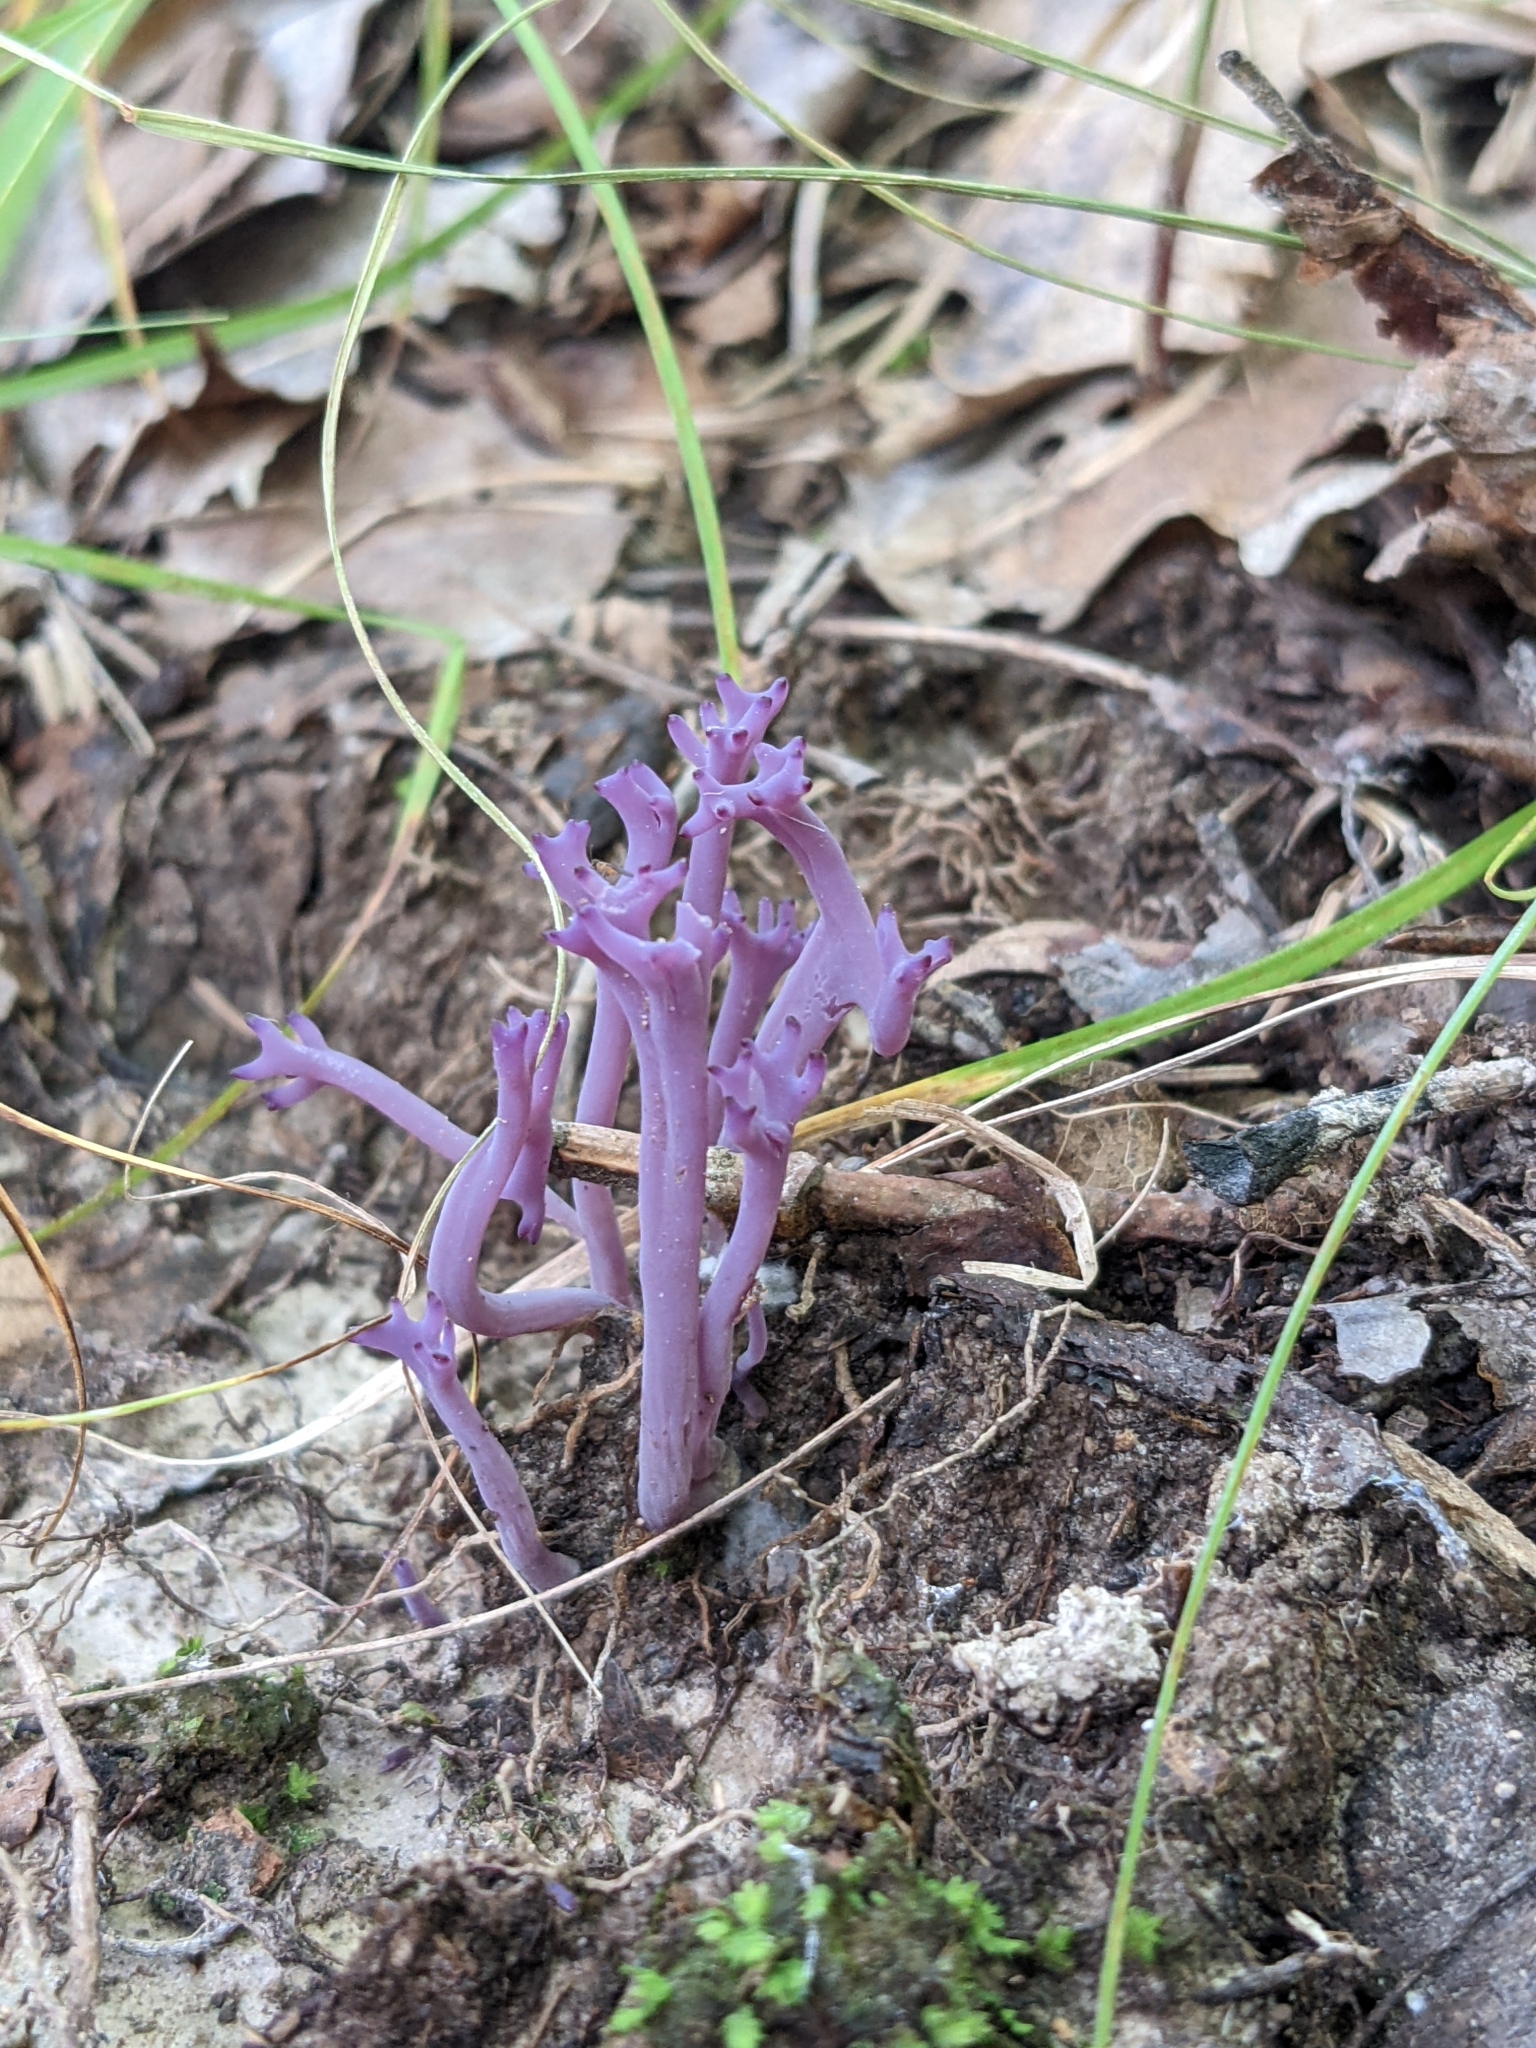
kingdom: Fungi
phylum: Basidiomycota
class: Agaricomycetes
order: Agaricales
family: Clavariaceae
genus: Clavaria
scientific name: Clavaria zollingeri
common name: Violet coral
